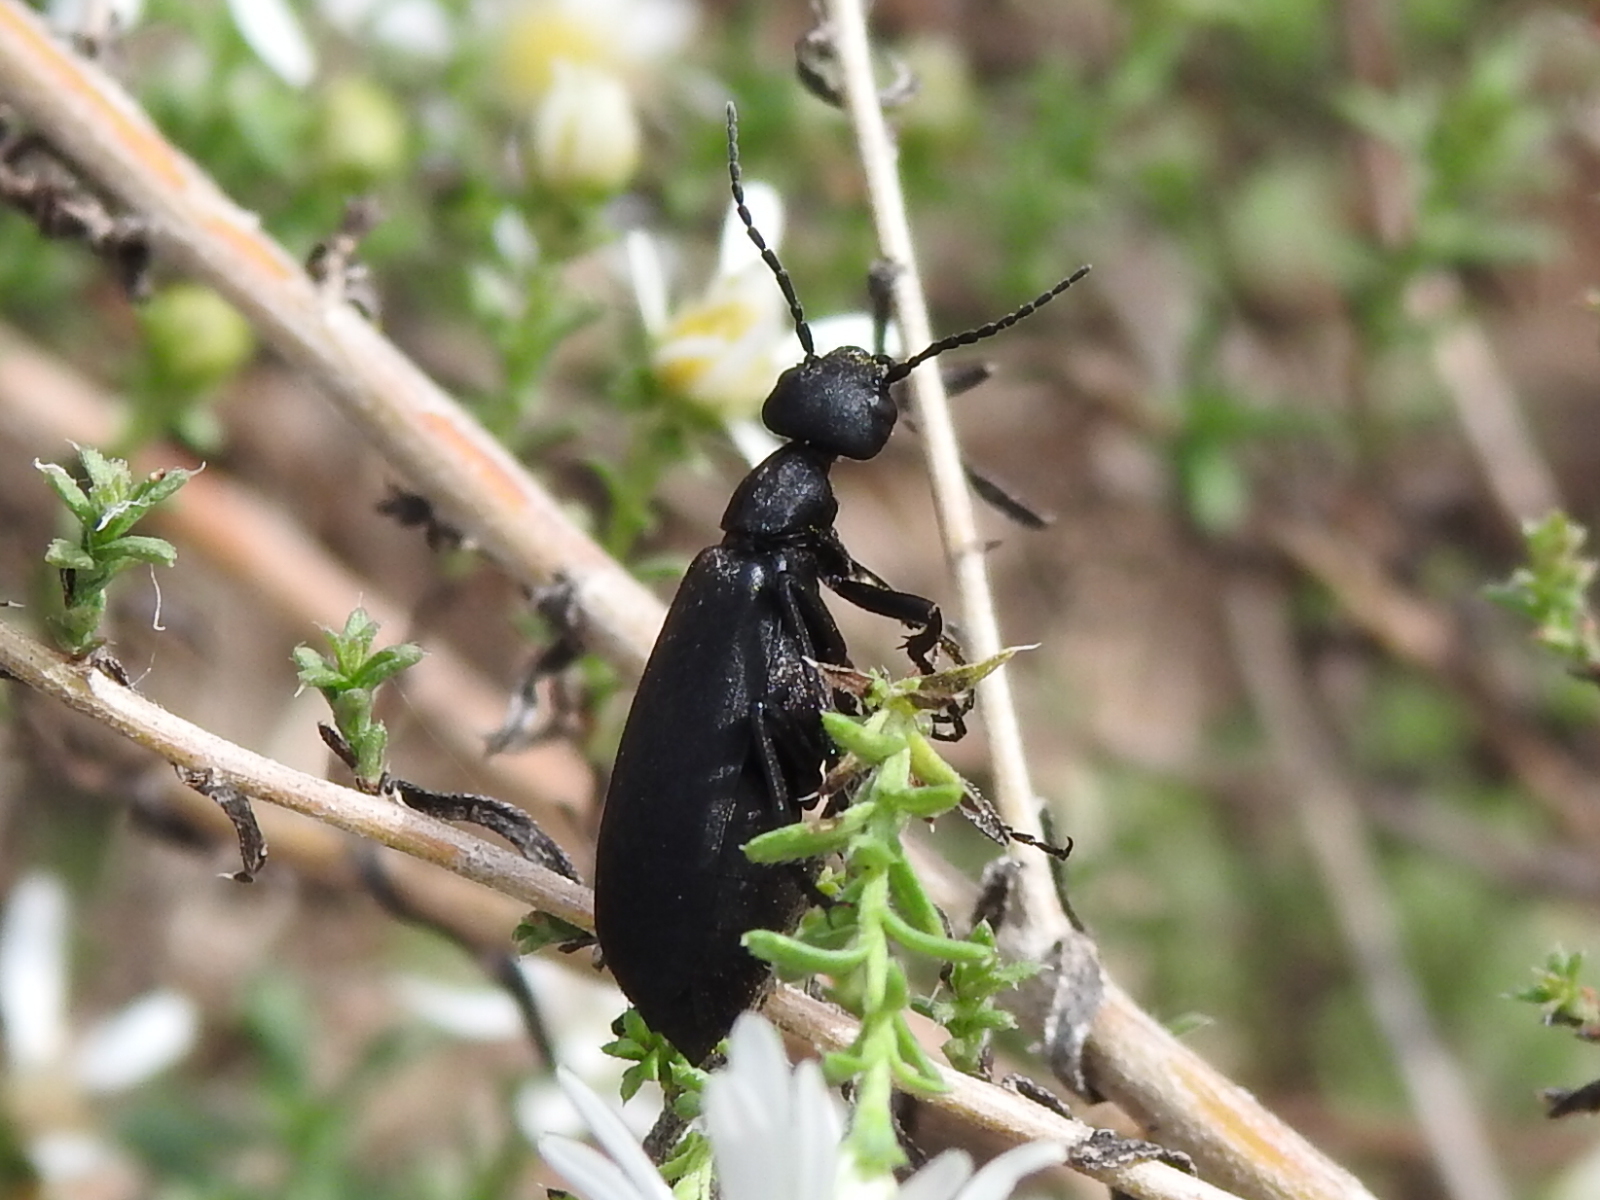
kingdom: Animalia
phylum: Arthropoda
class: Insecta
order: Coleoptera
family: Meloidae
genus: Epicauta
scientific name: Epicauta pensylvanica
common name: Black blister beetle
